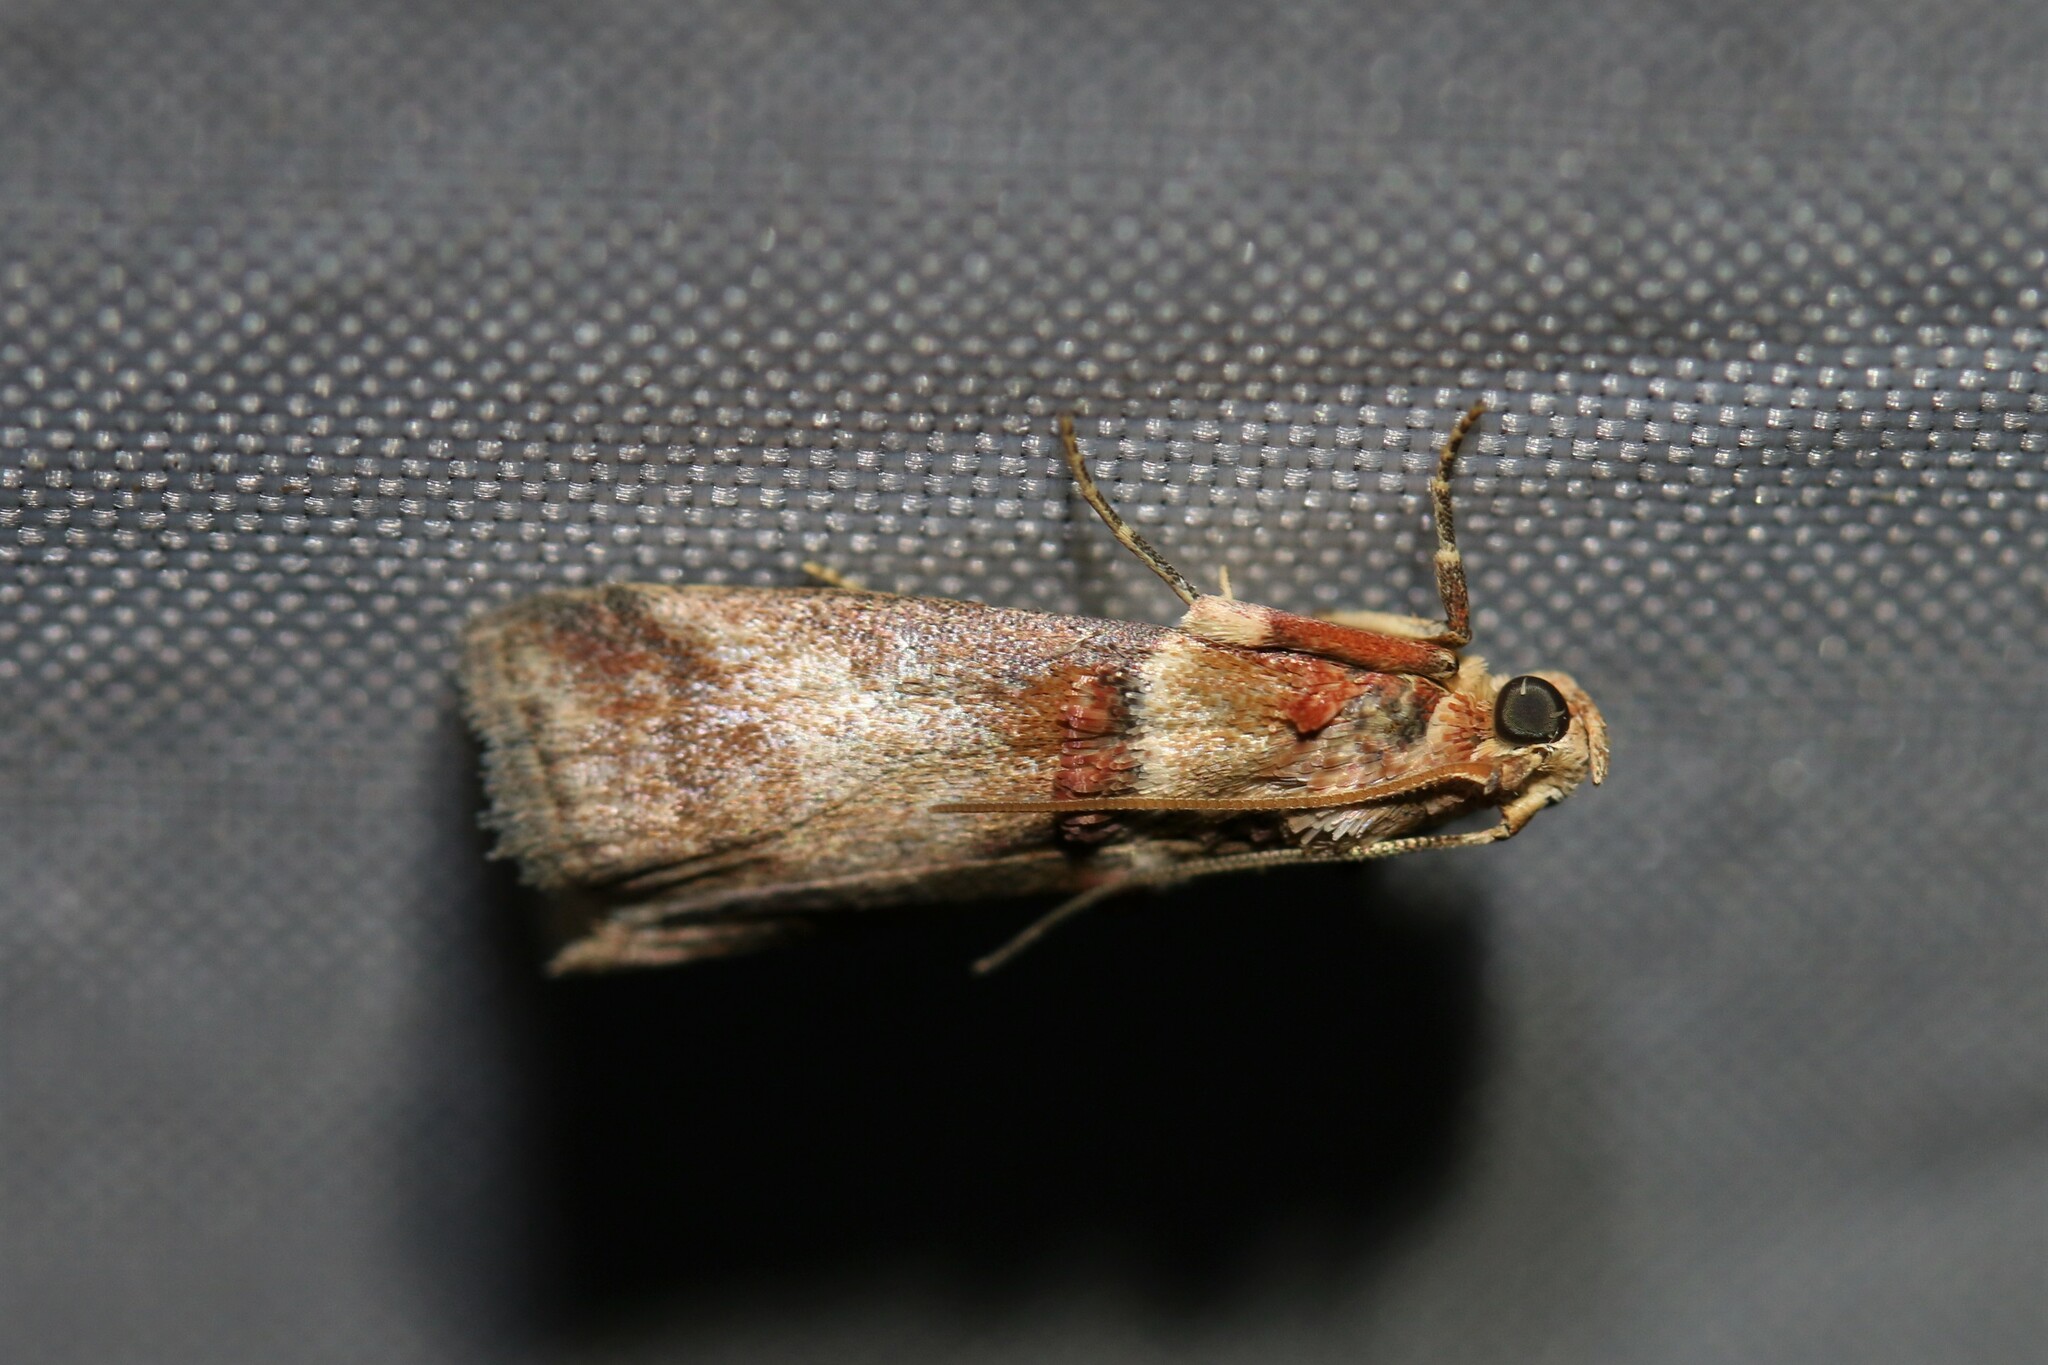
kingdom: Animalia
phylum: Arthropoda
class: Insecta
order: Lepidoptera
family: Pyralidae
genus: Acrobasis
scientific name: Acrobasis tumidana
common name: Scarce oak knot-horn
